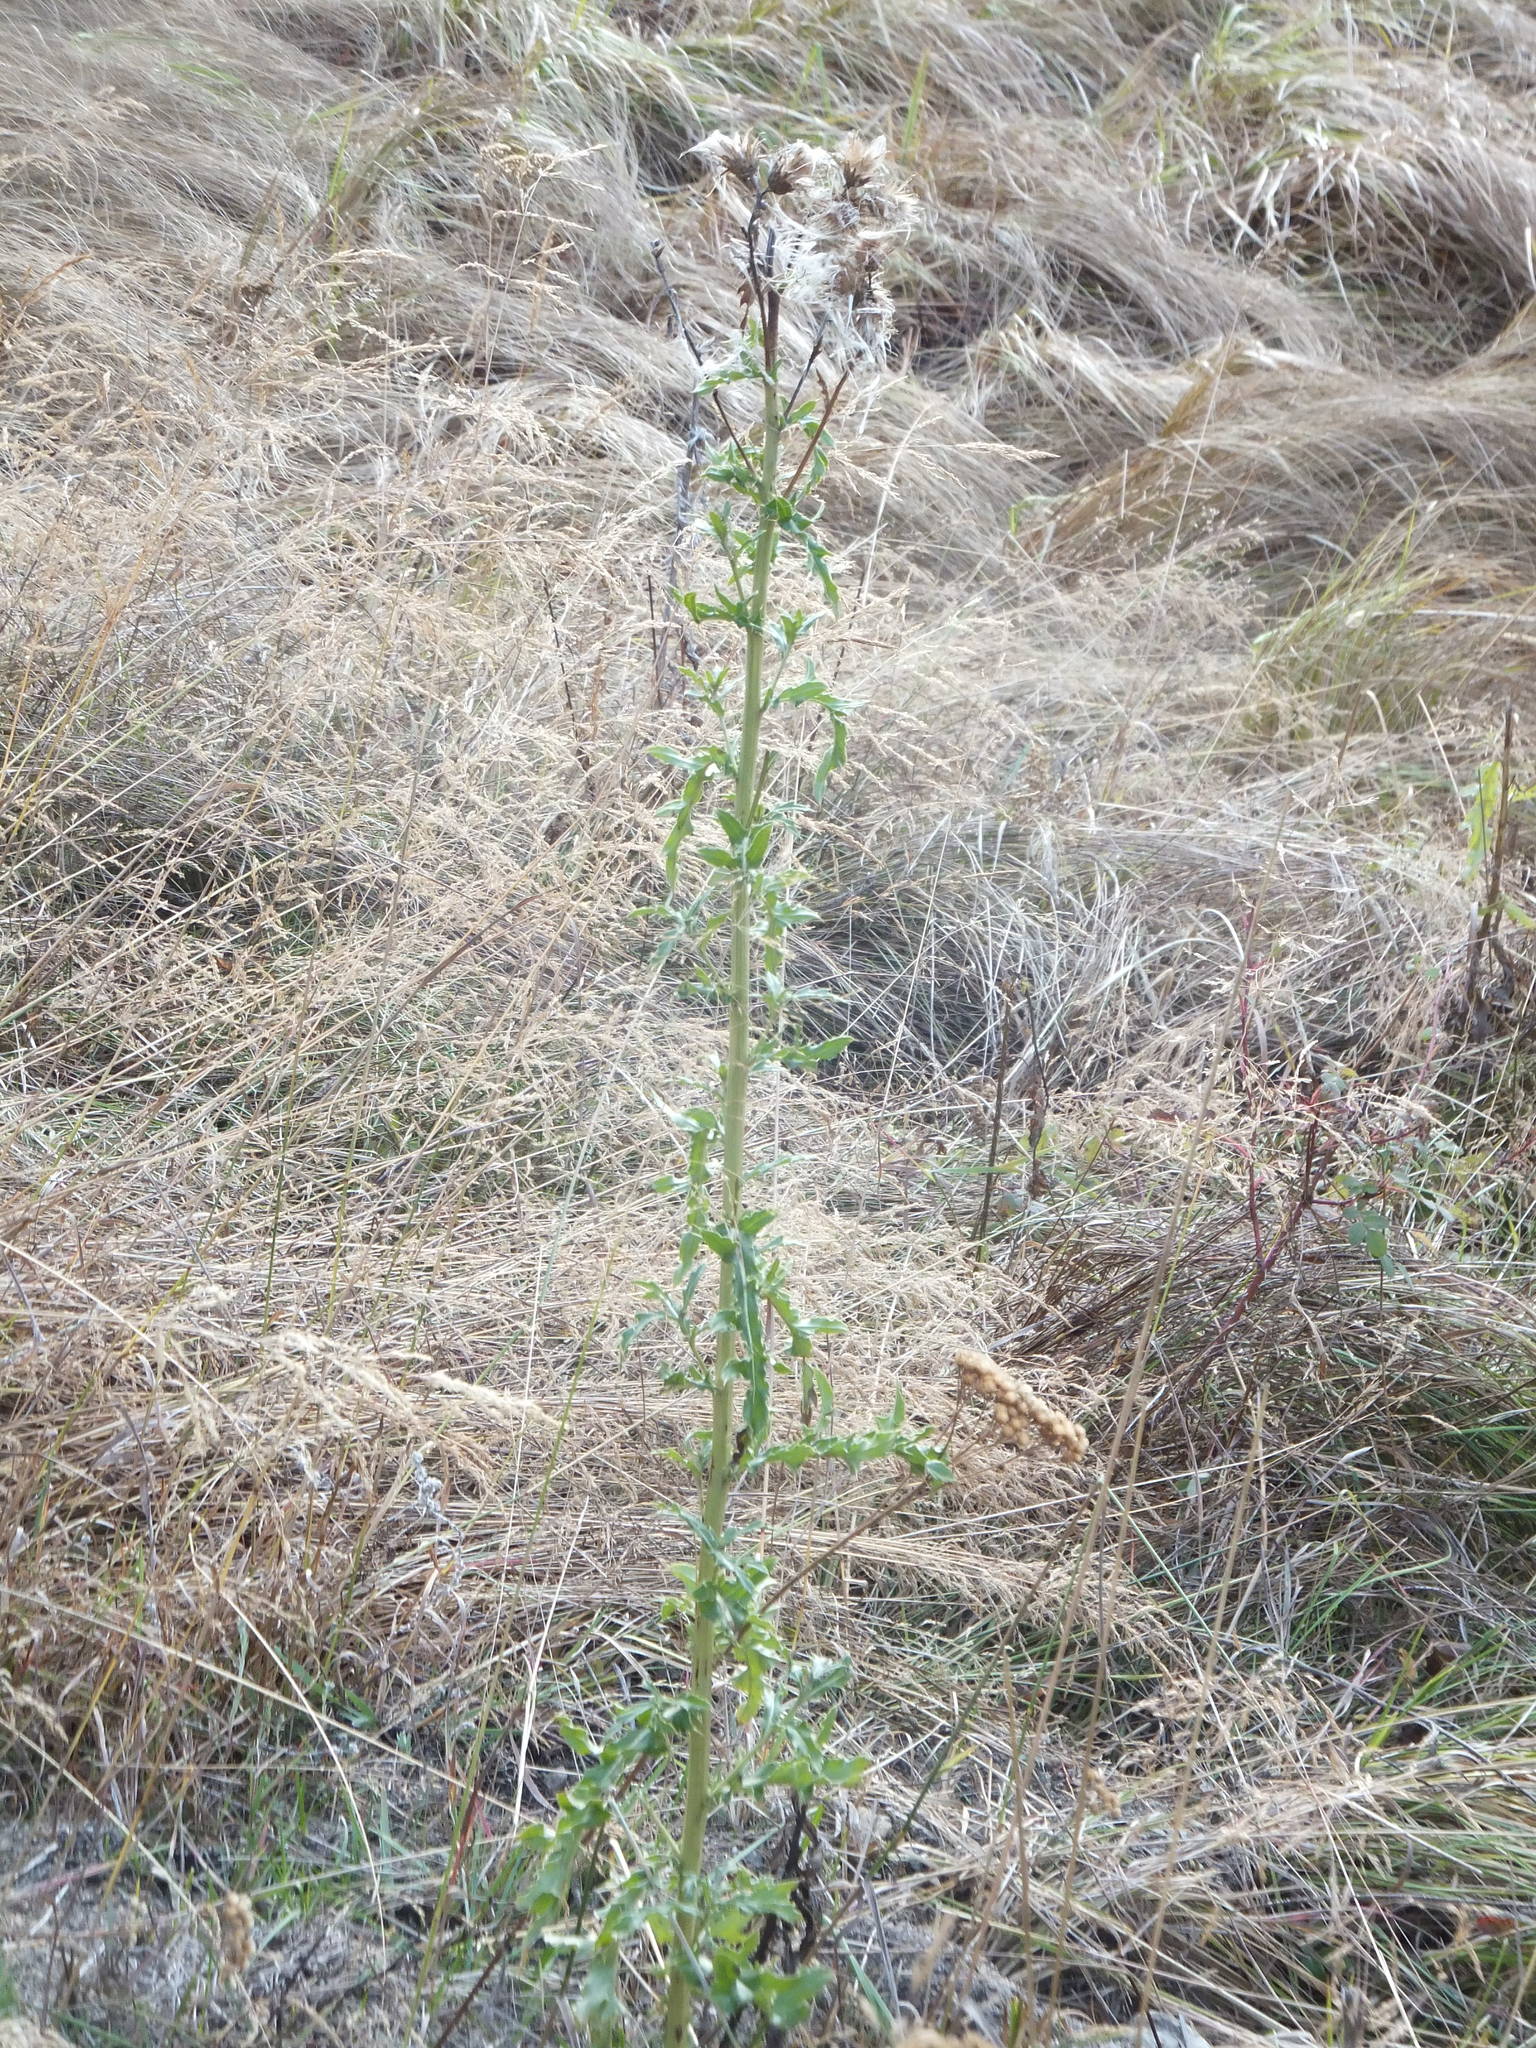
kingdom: Plantae
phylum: Tracheophyta
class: Magnoliopsida
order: Asterales
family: Asteraceae
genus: Cirsium
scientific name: Cirsium arvense
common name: Creeping thistle
